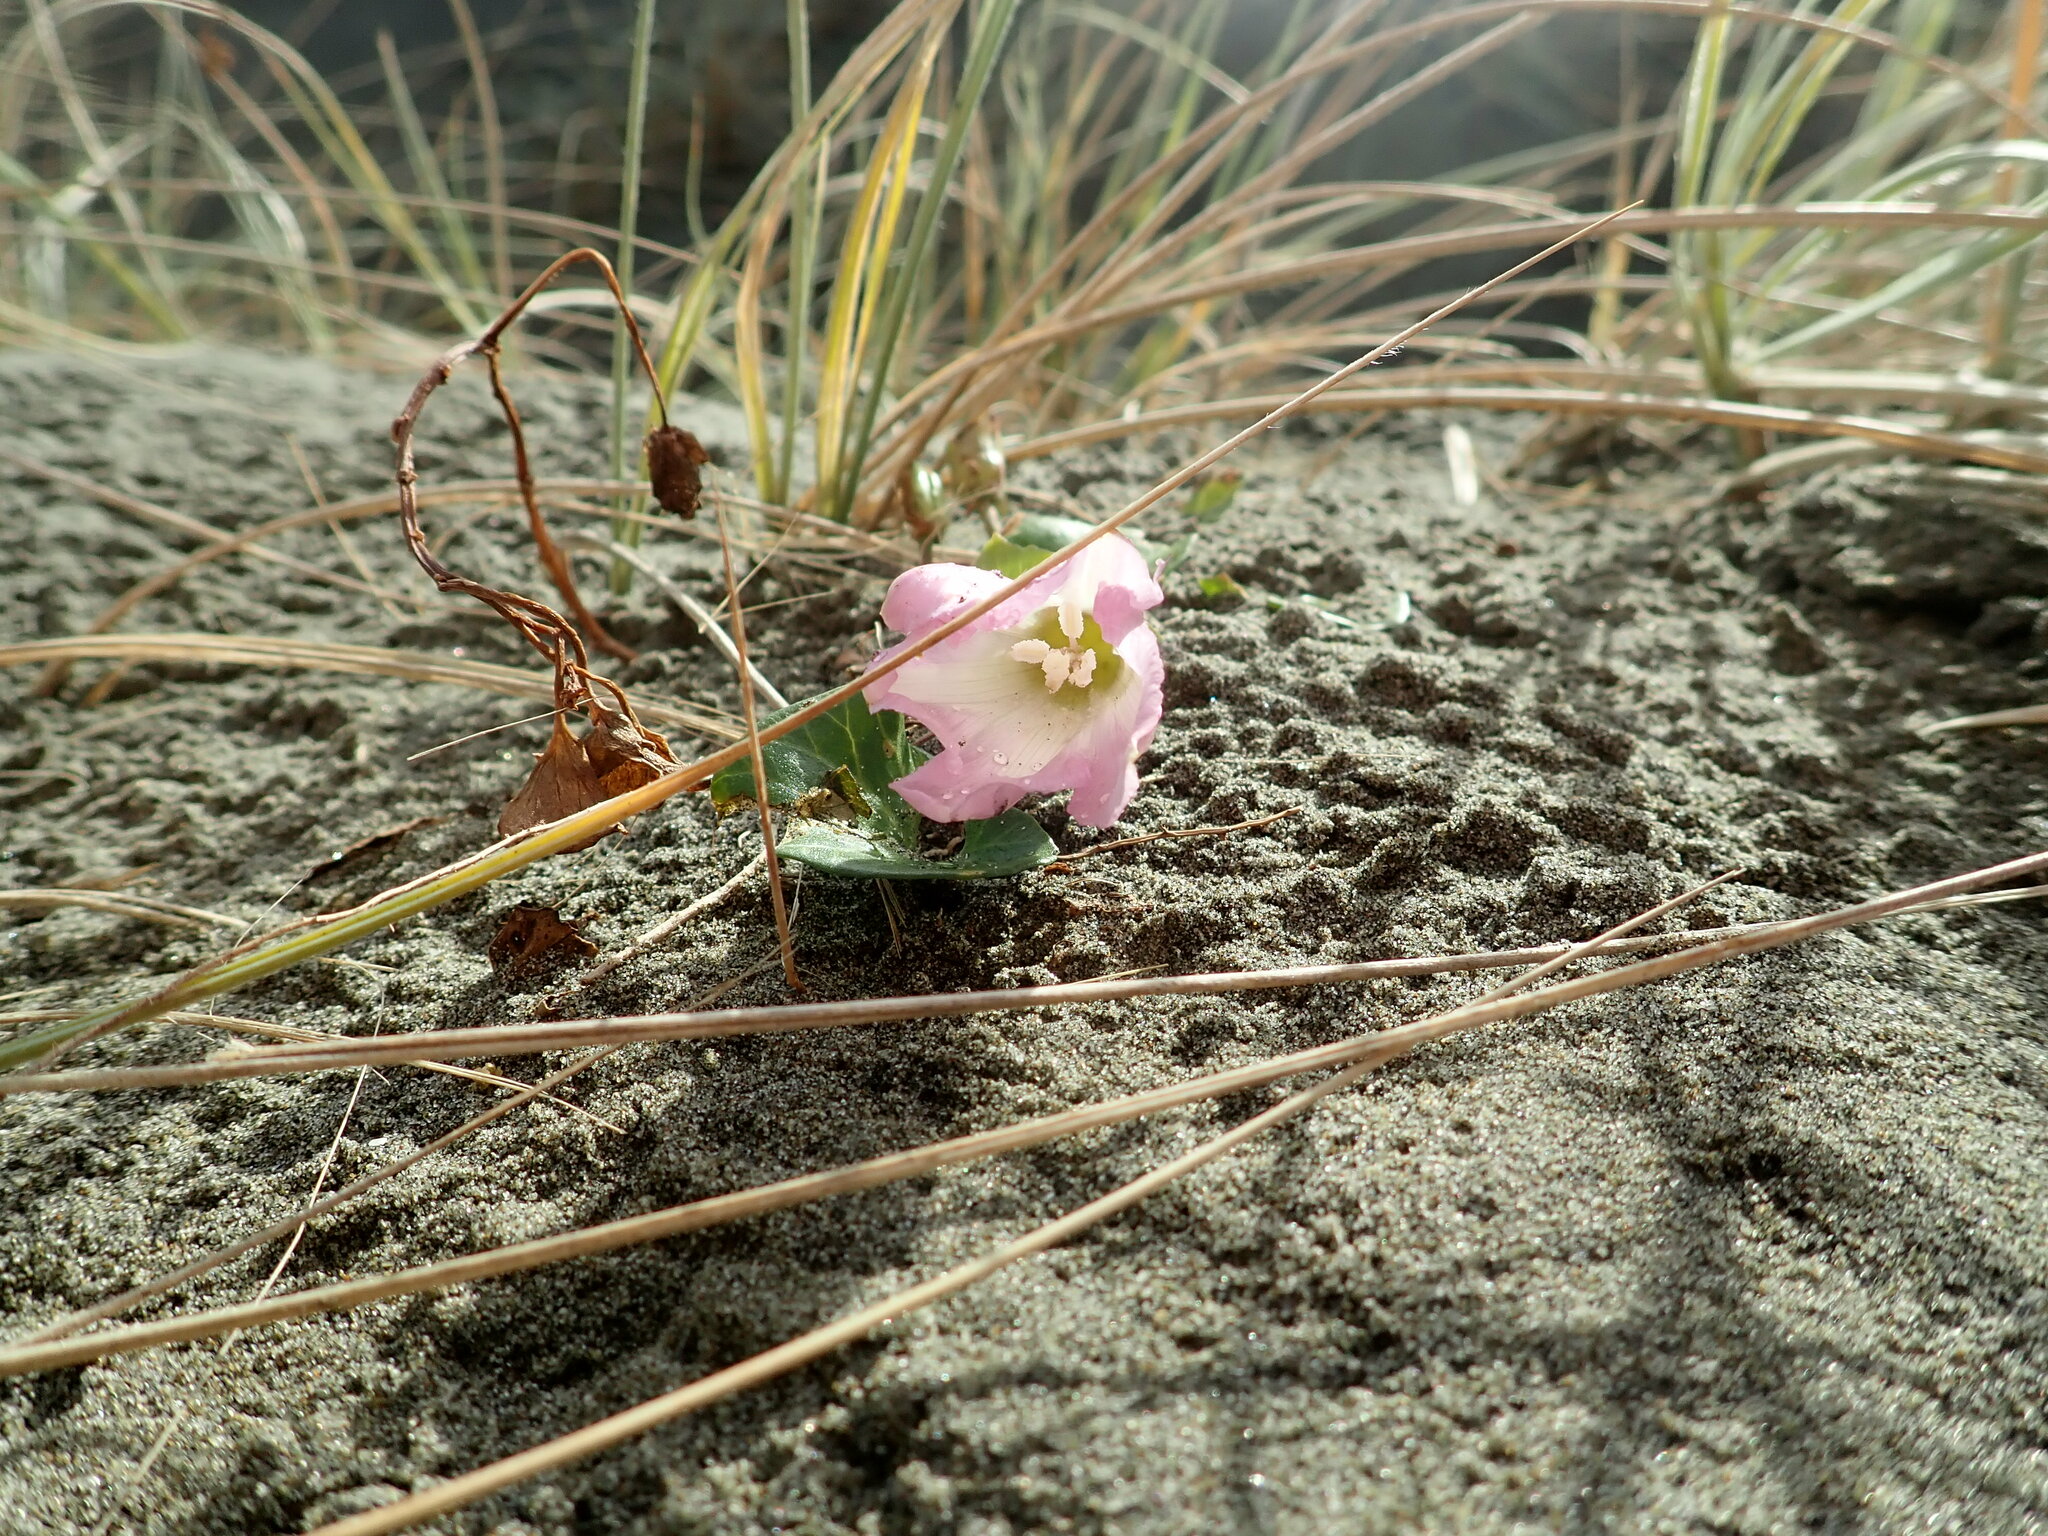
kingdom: Plantae
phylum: Tracheophyta
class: Magnoliopsida
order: Solanales
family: Convolvulaceae
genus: Calystegia
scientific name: Calystegia soldanella
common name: Sea bindweed
